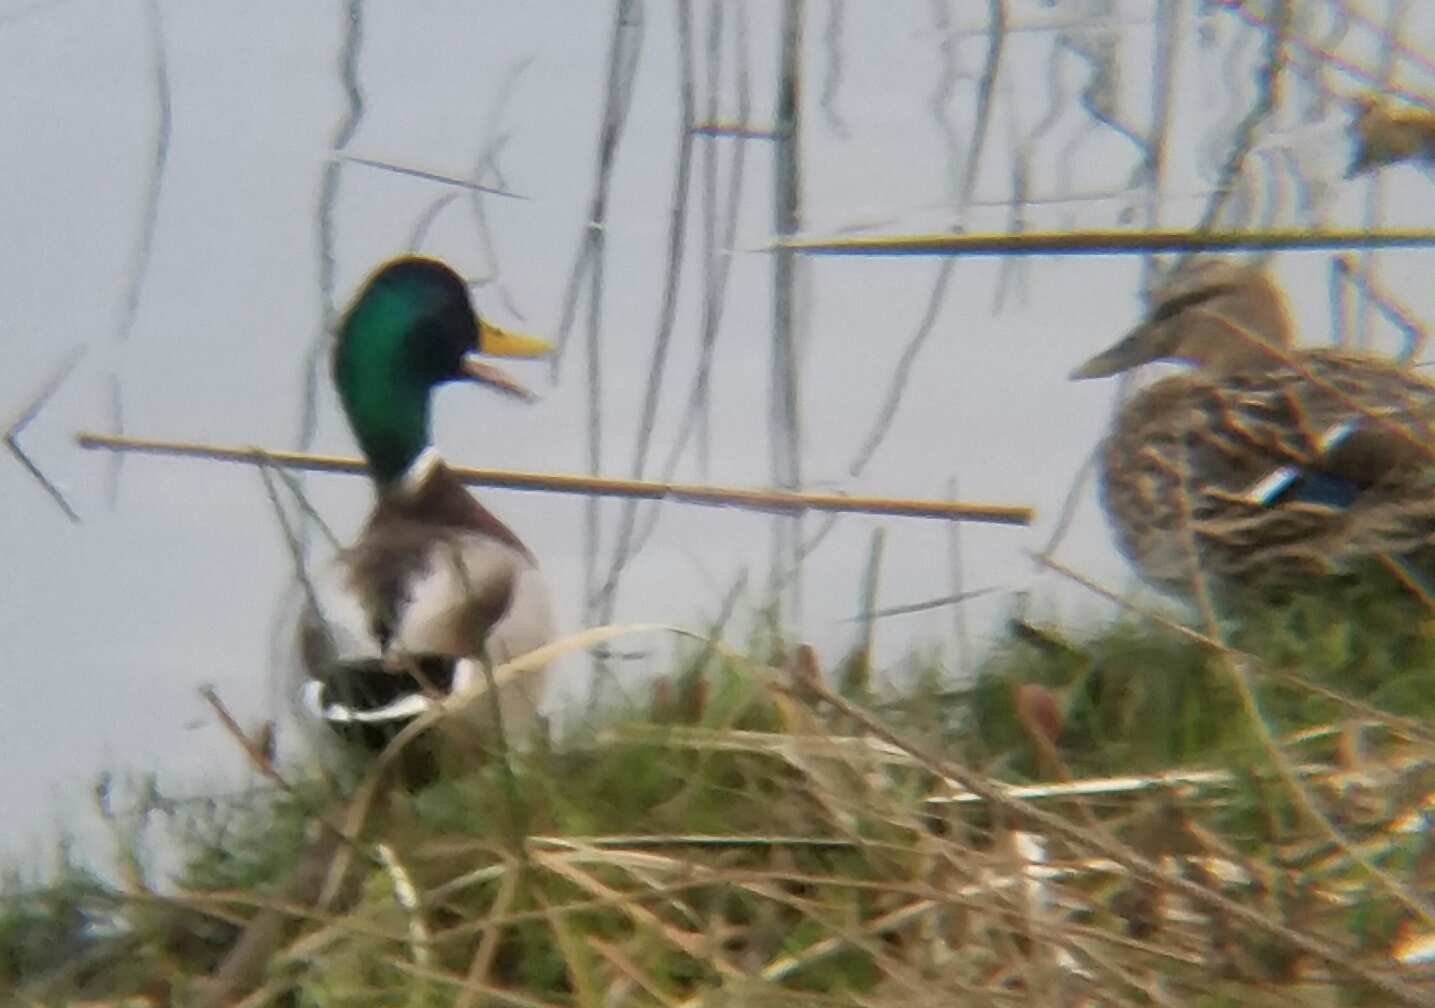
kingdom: Animalia
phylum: Chordata
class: Aves
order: Anseriformes
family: Anatidae
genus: Anas
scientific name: Anas platyrhynchos
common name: Mallard
